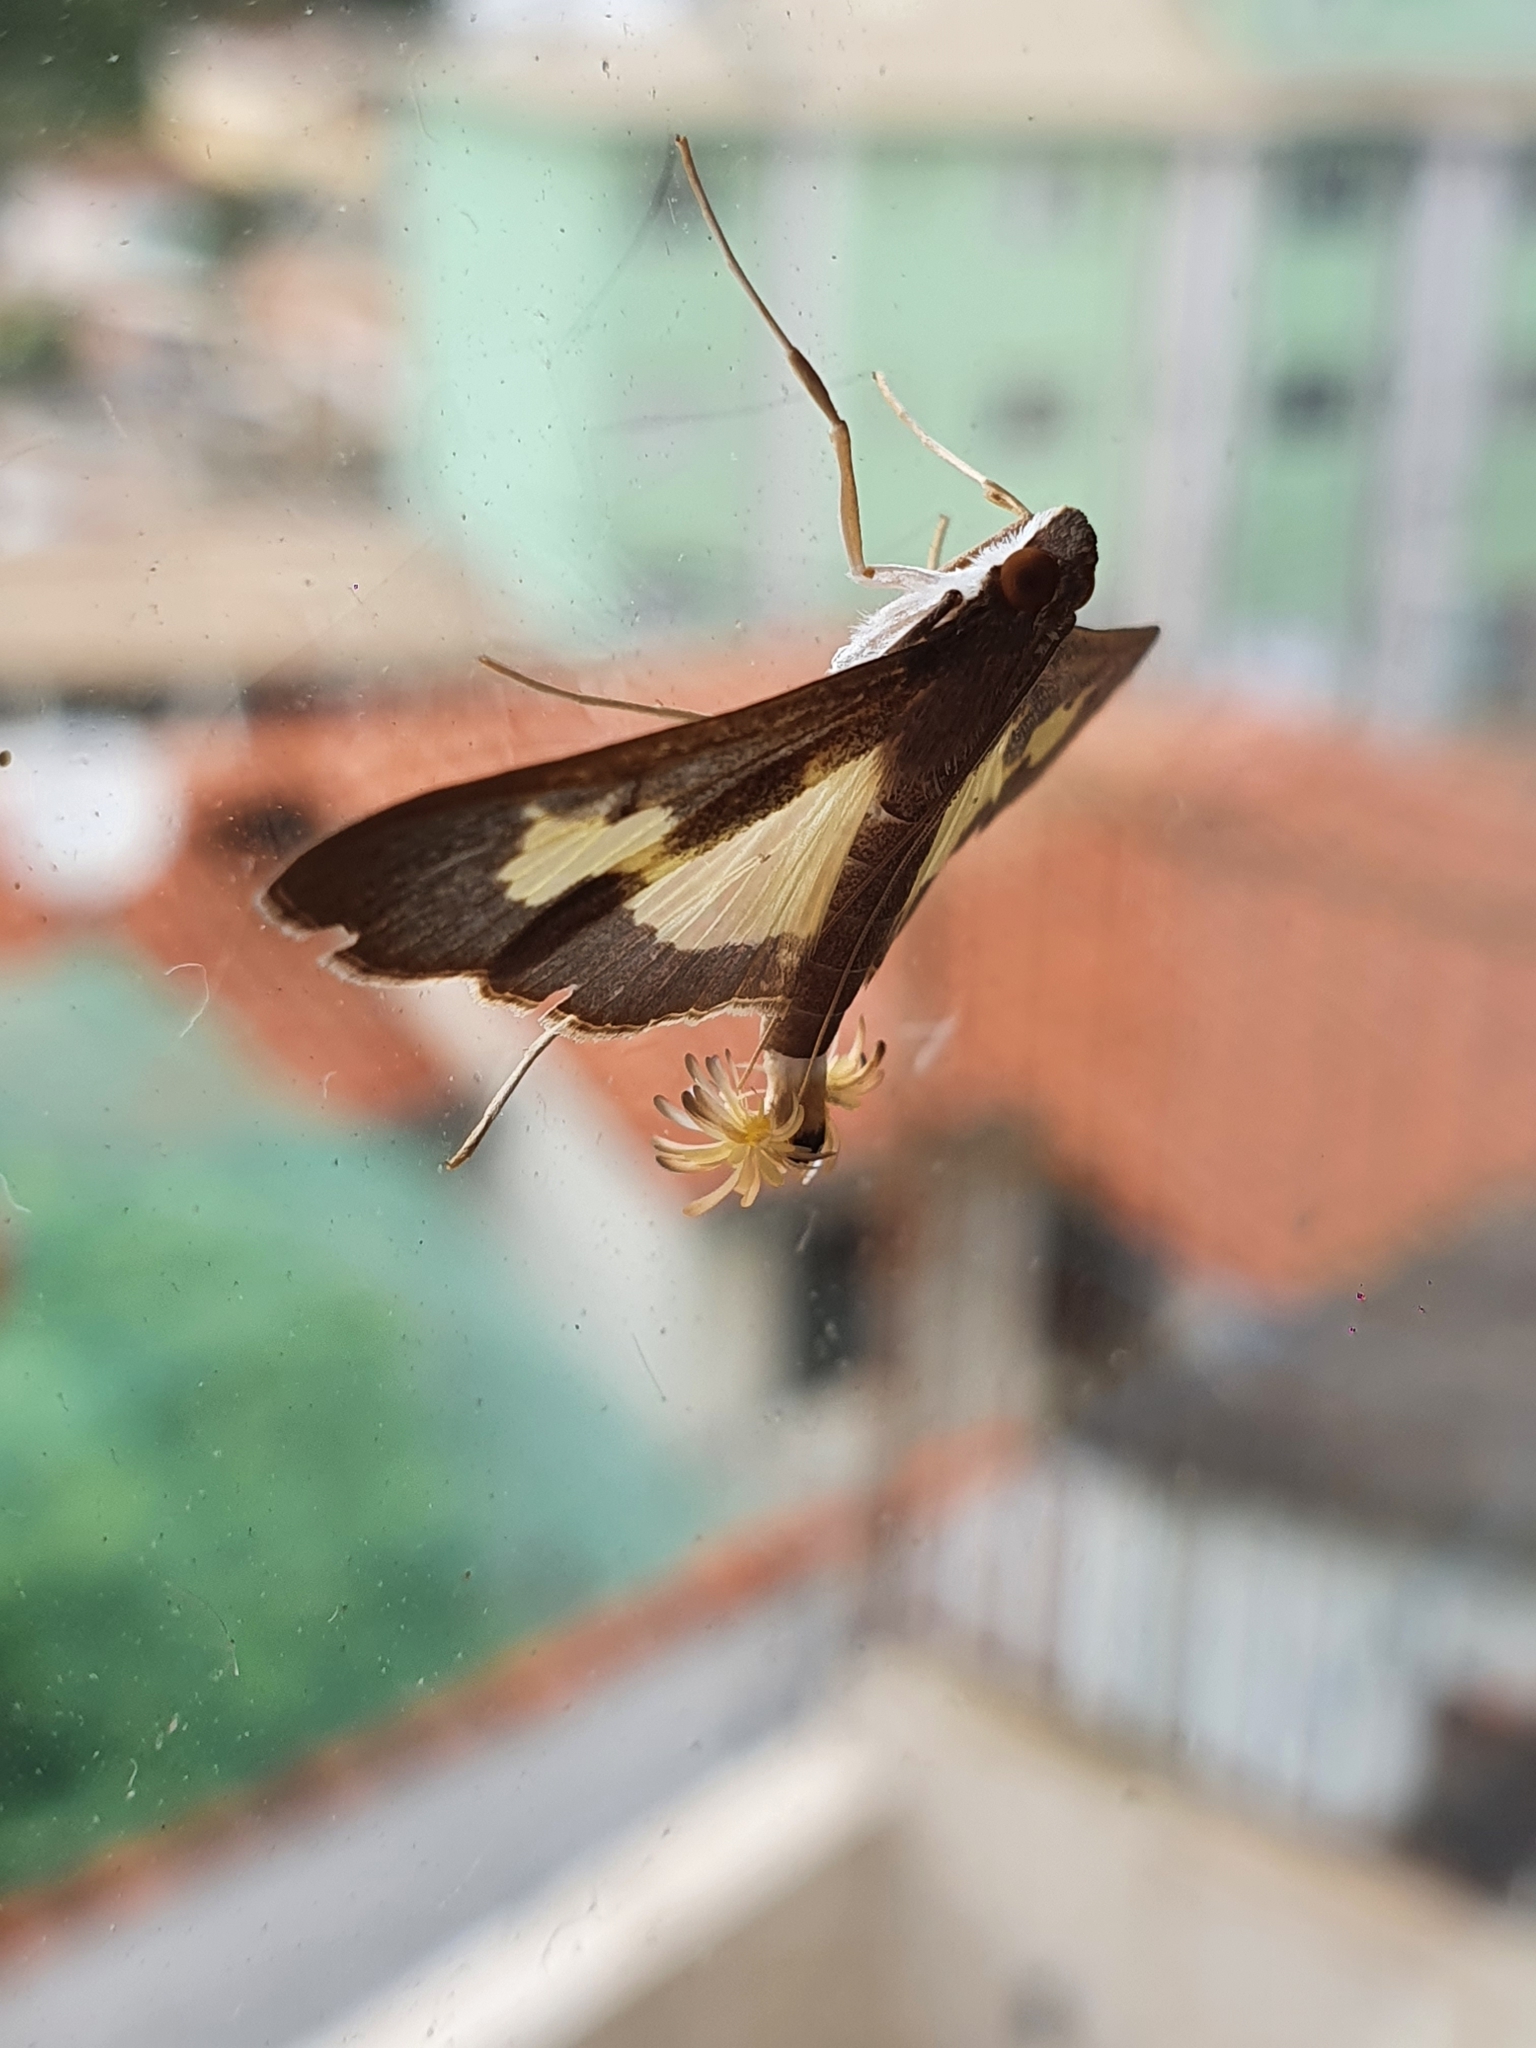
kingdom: Animalia
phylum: Arthropoda
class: Insecta
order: Lepidoptera
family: Crambidae
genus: Cryptographis
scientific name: Cryptographis nitidalis
